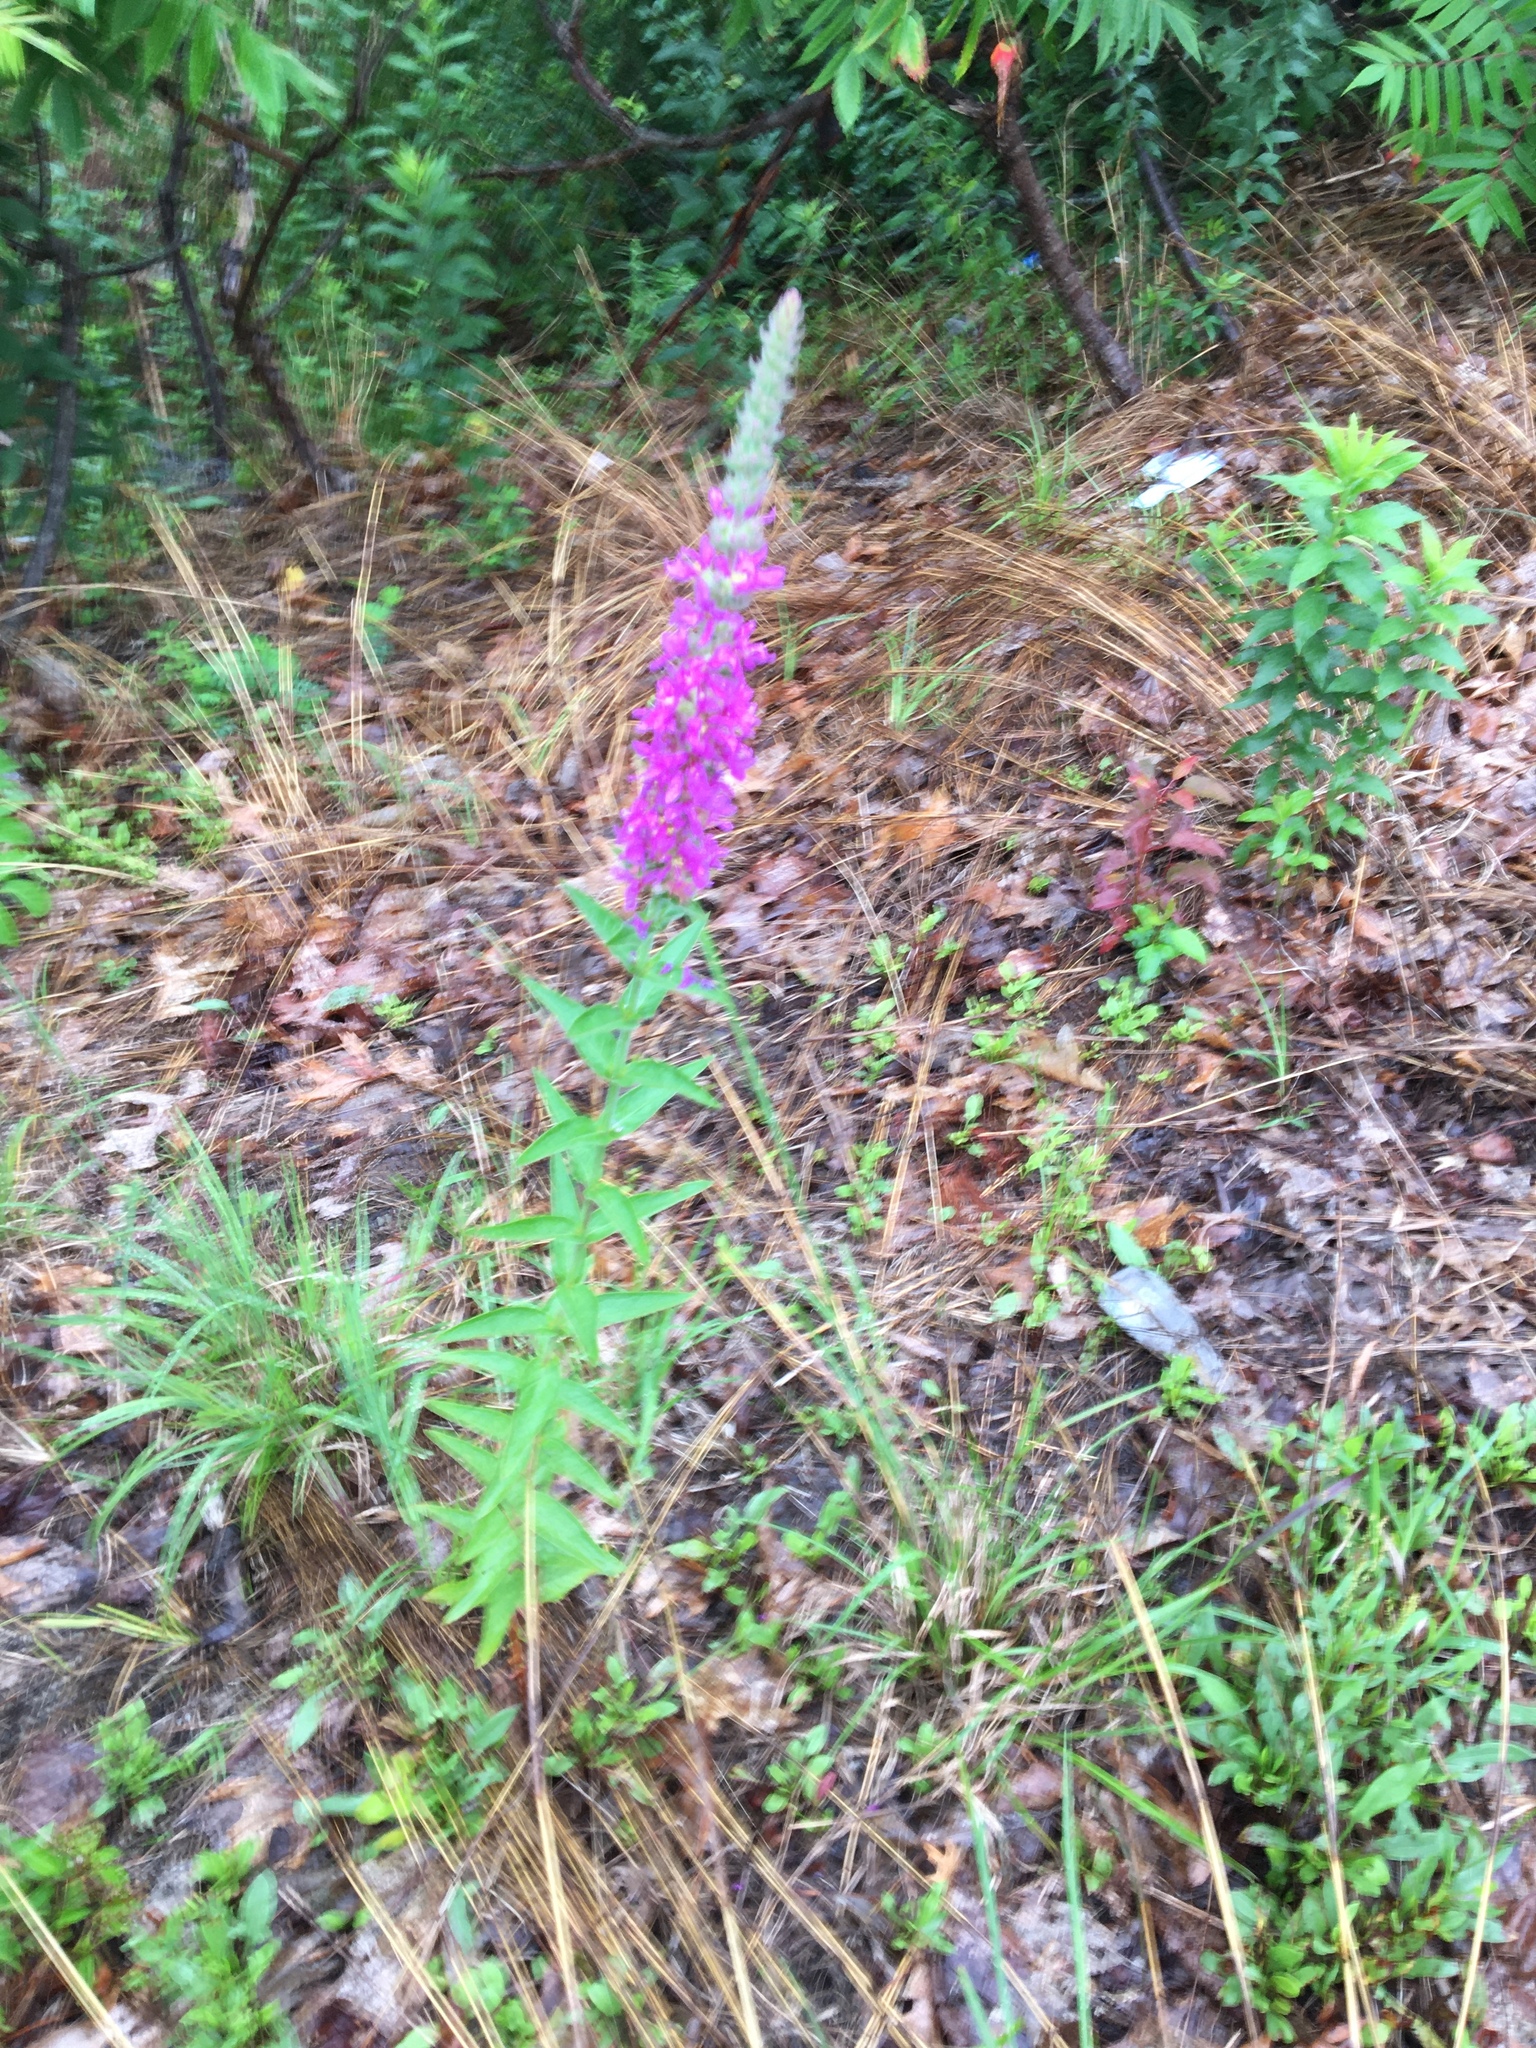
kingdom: Plantae
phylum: Tracheophyta
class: Magnoliopsida
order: Myrtales
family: Lythraceae
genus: Lythrum
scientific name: Lythrum salicaria
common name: Purple loosestrife
